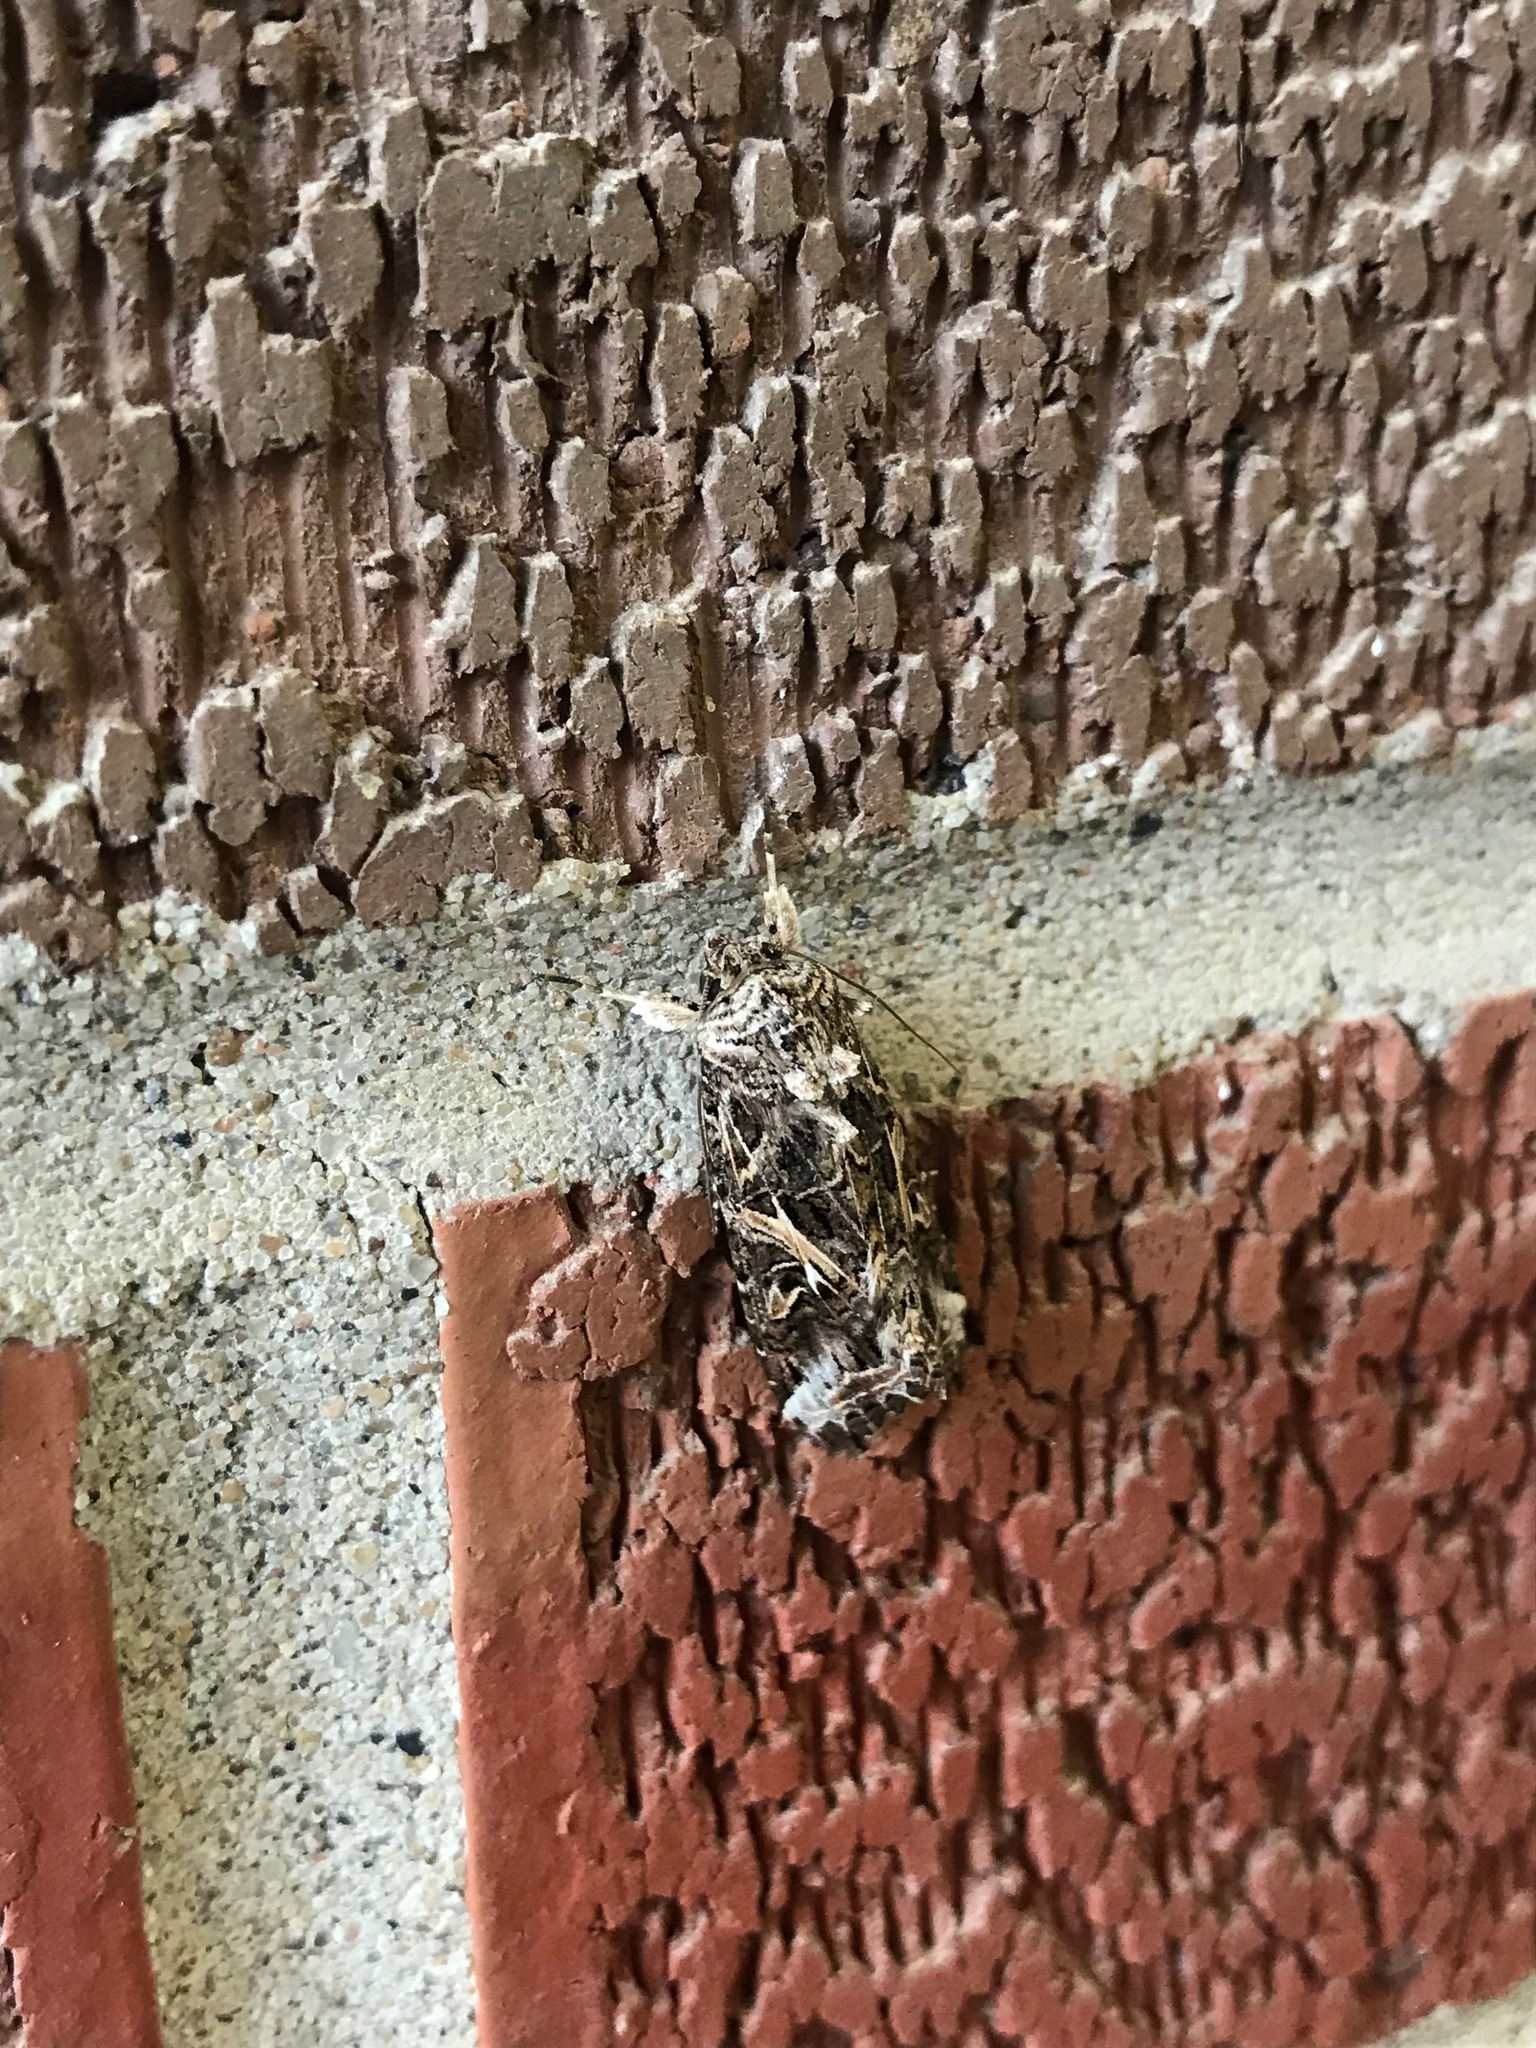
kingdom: Animalia
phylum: Arthropoda
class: Insecta
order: Lepidoptera
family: Noctuidae
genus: Spodoptera
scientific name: Spodoptera frugiperda
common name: Fall armyworm
